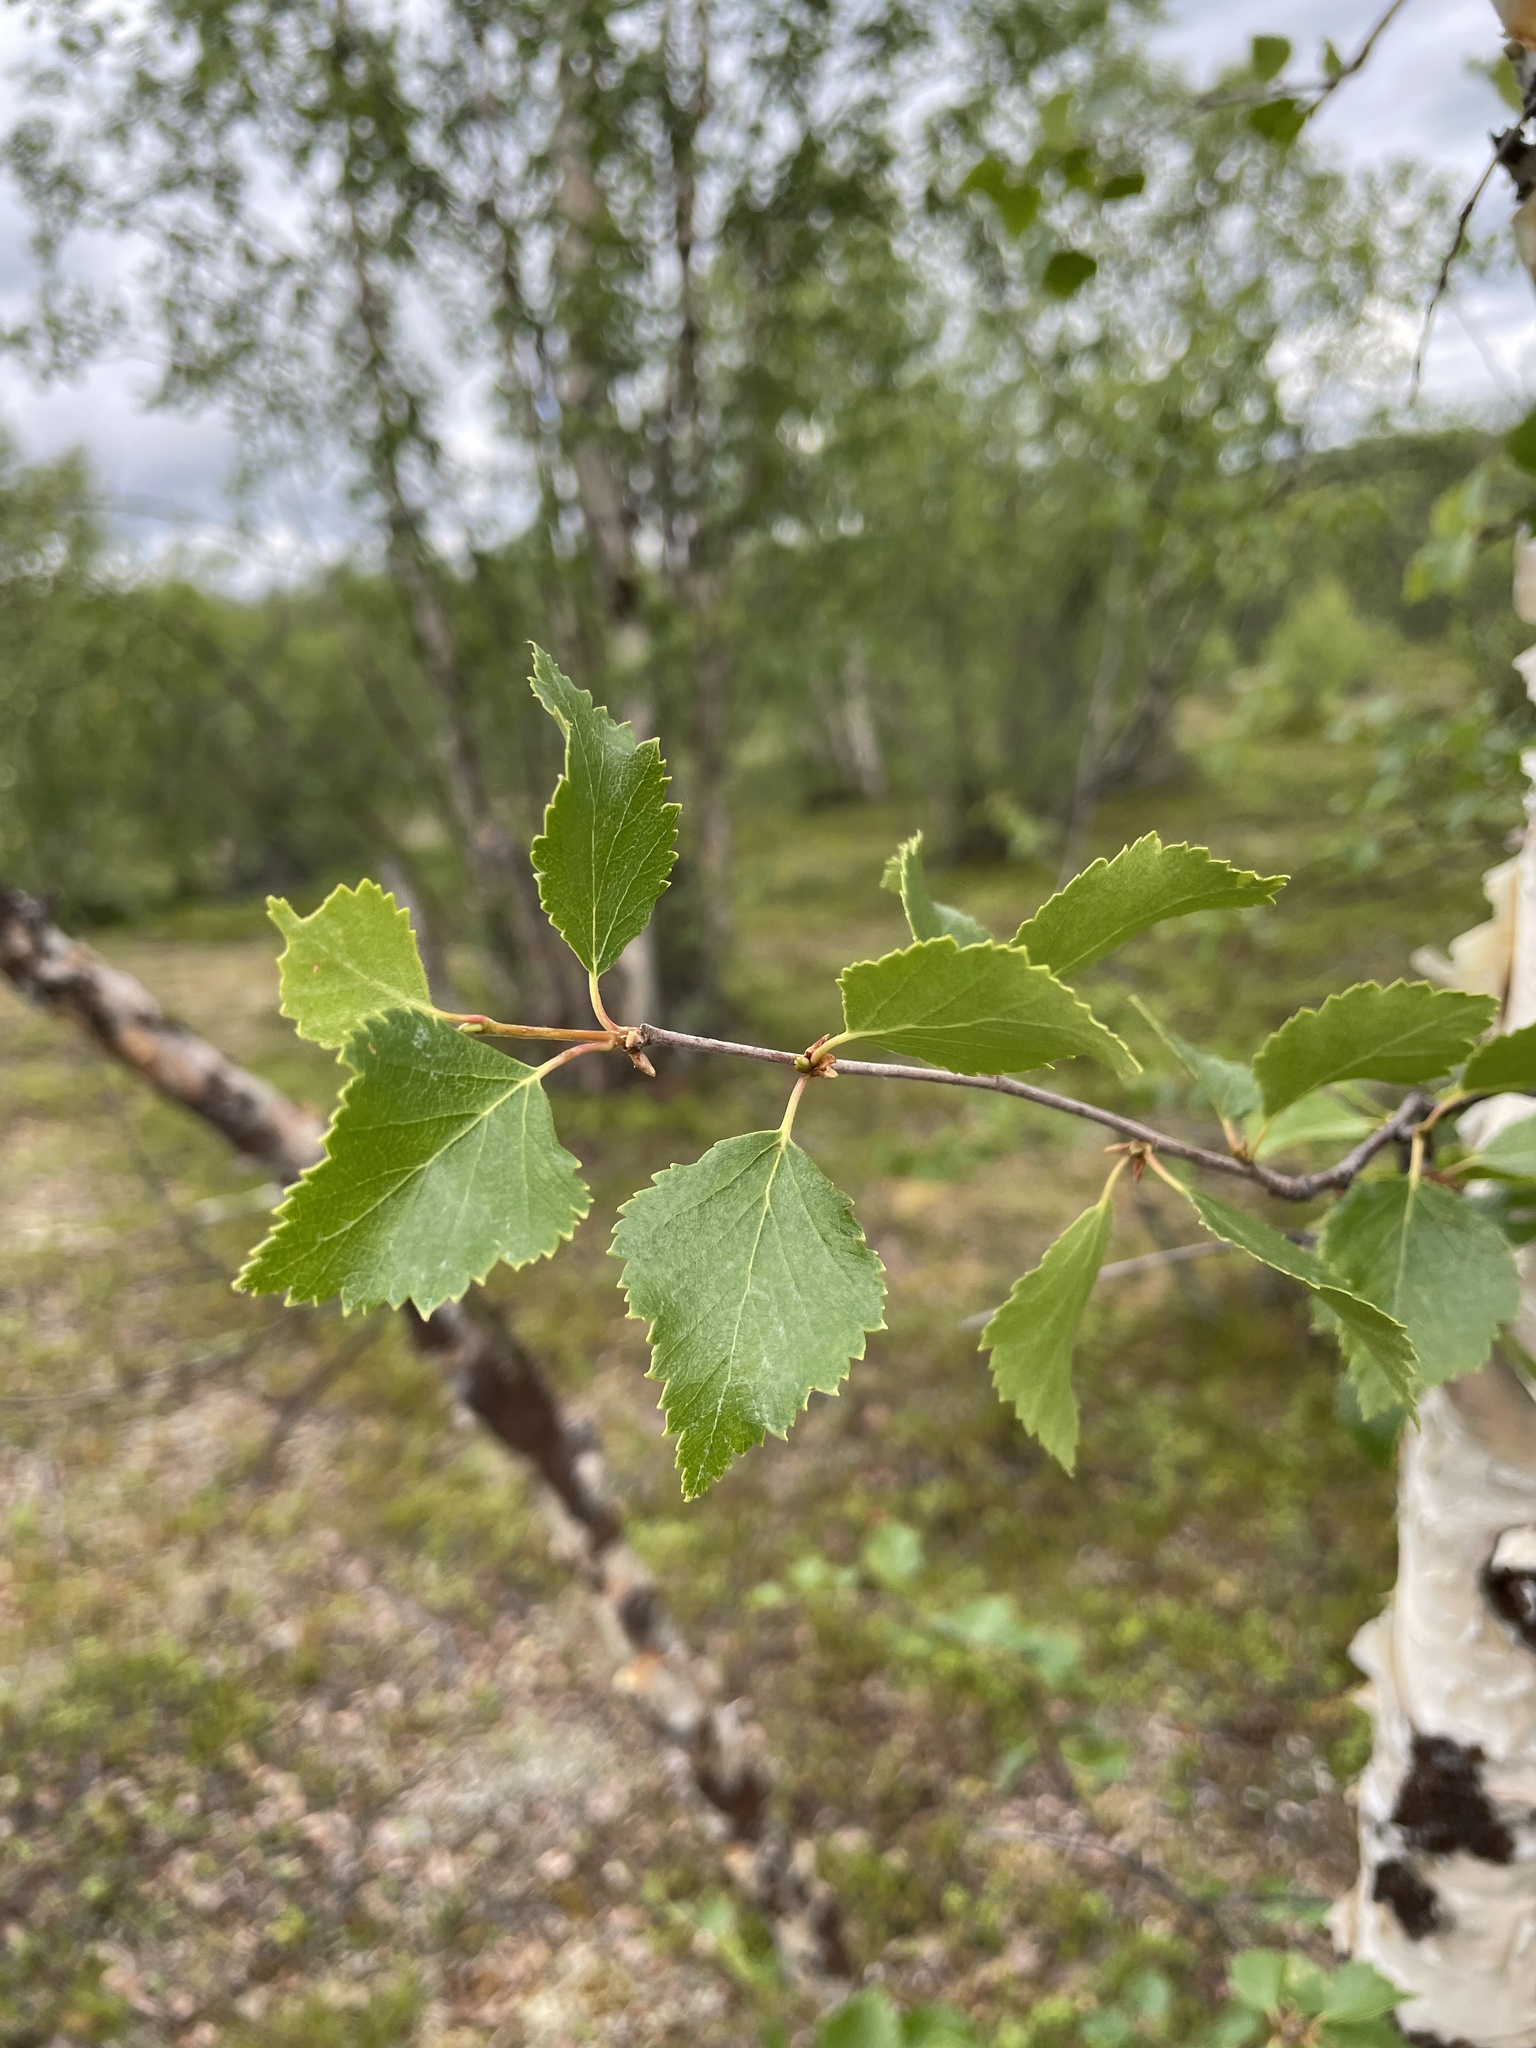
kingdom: Plantae
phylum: Tracheophyta
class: Magnoliopsida
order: Fagales
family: Betulaceae
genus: Betula
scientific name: Betula pubescens
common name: Downy birch
